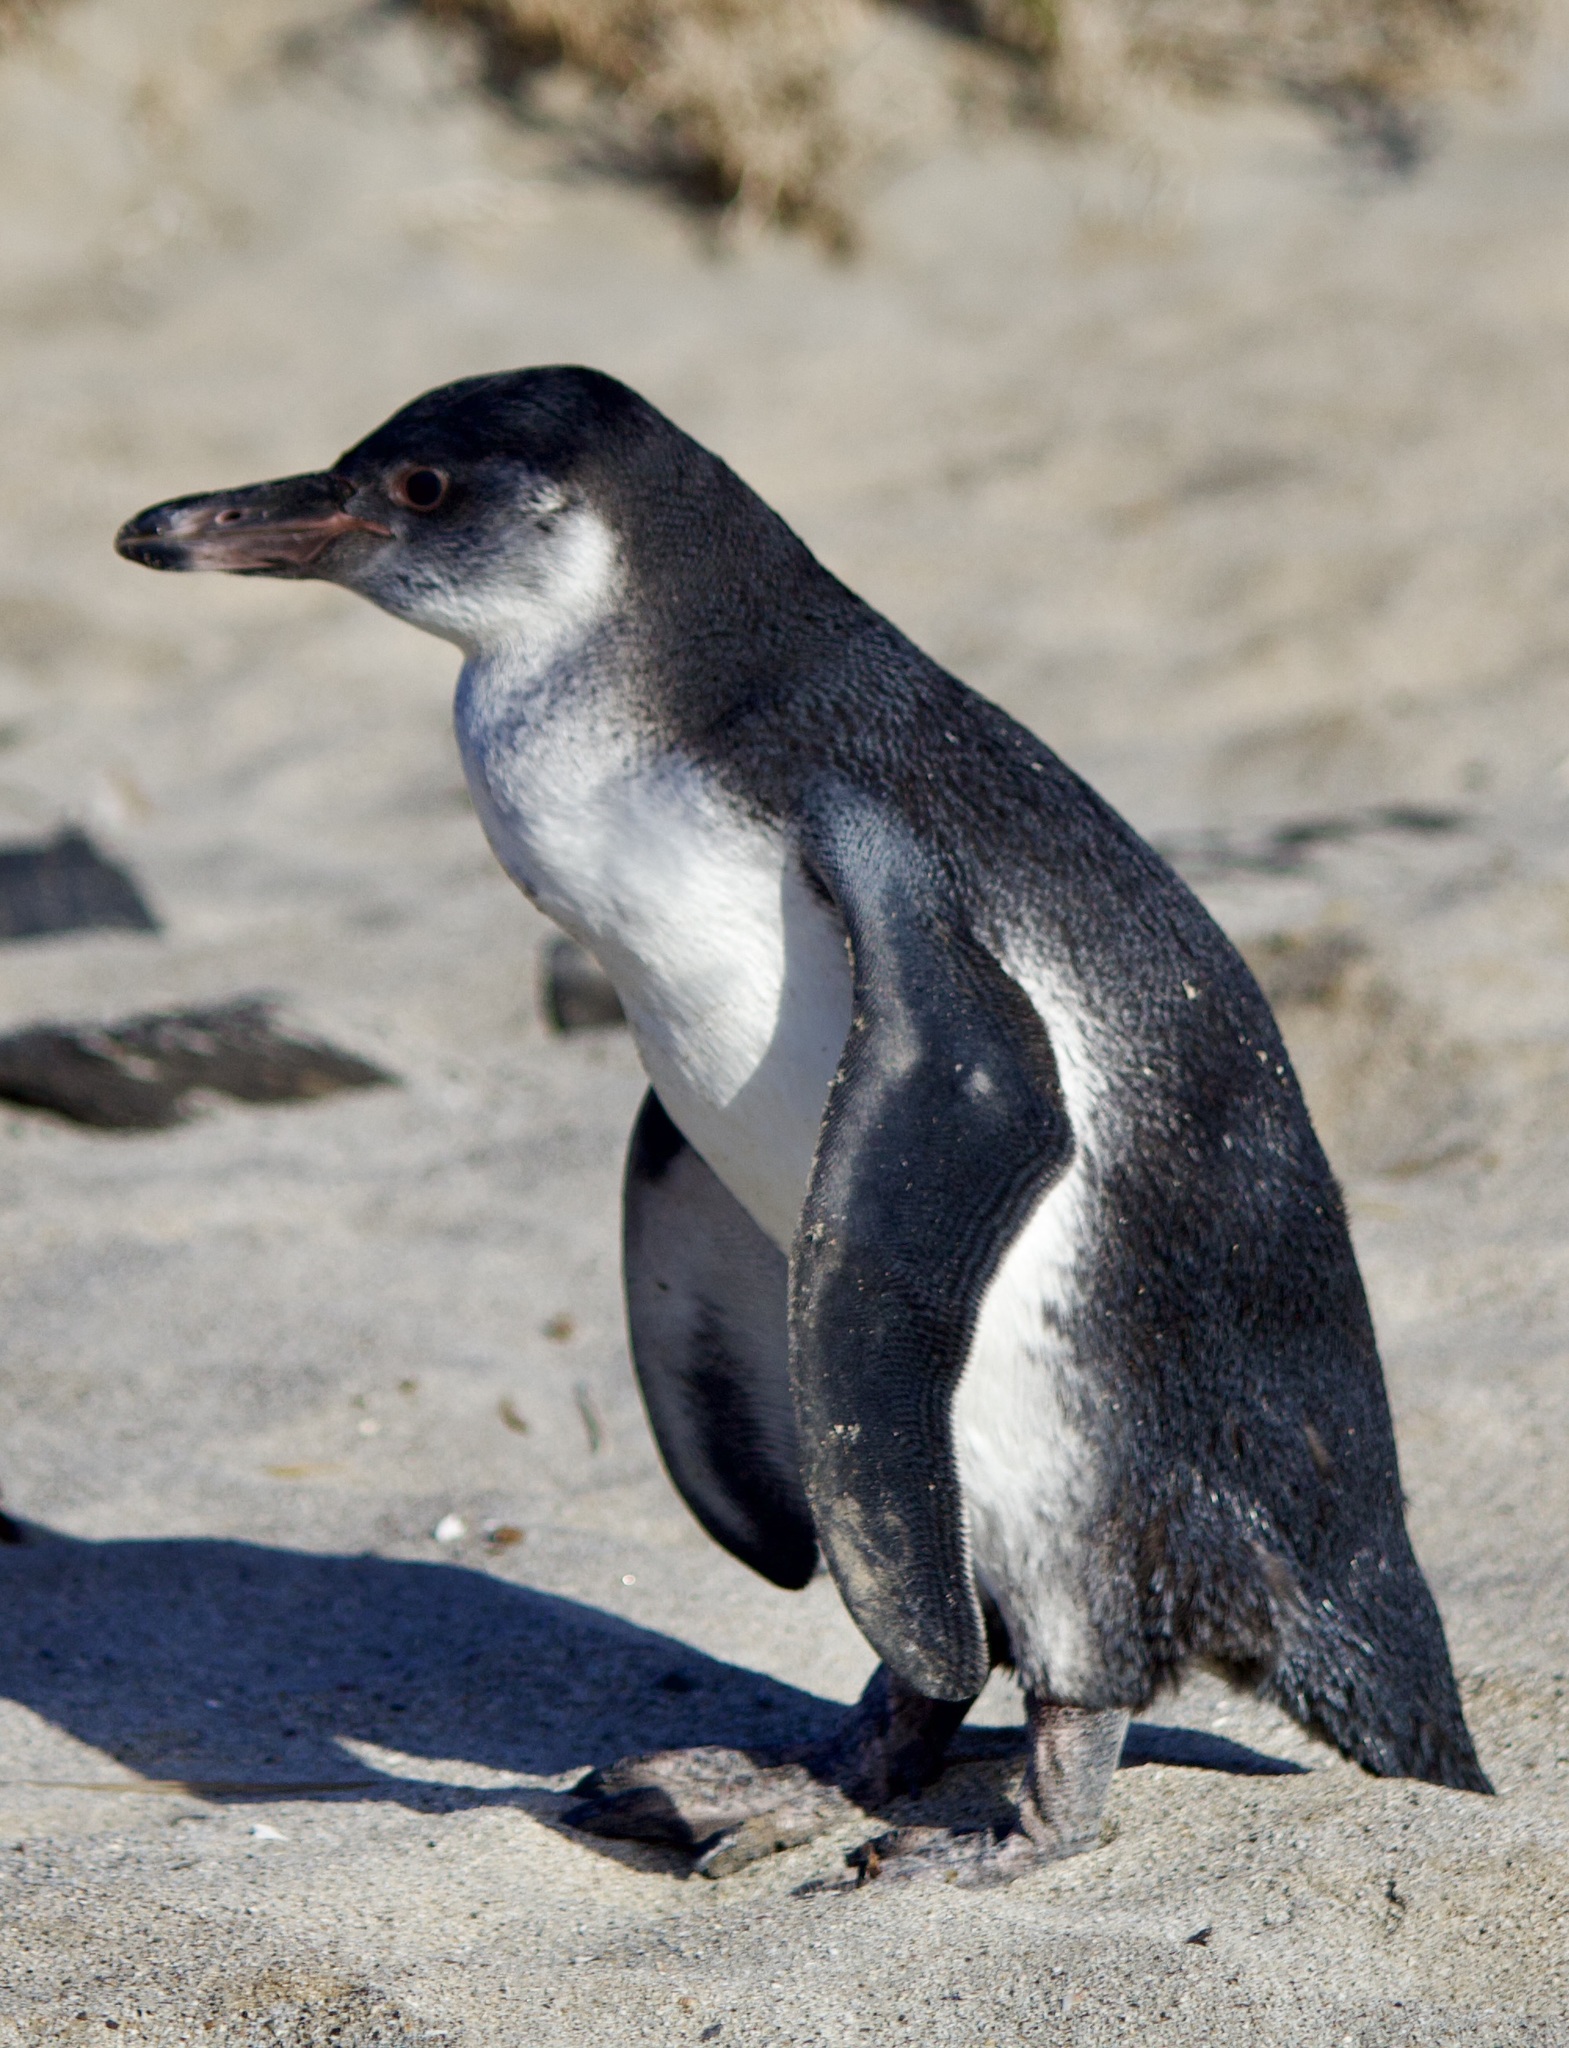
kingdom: Animalia
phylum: Chordata
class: Aves
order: Sphenisciformes
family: Spheniscidae
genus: Spheniscus
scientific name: Spheniscus humboldti
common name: Humboldt penguin
